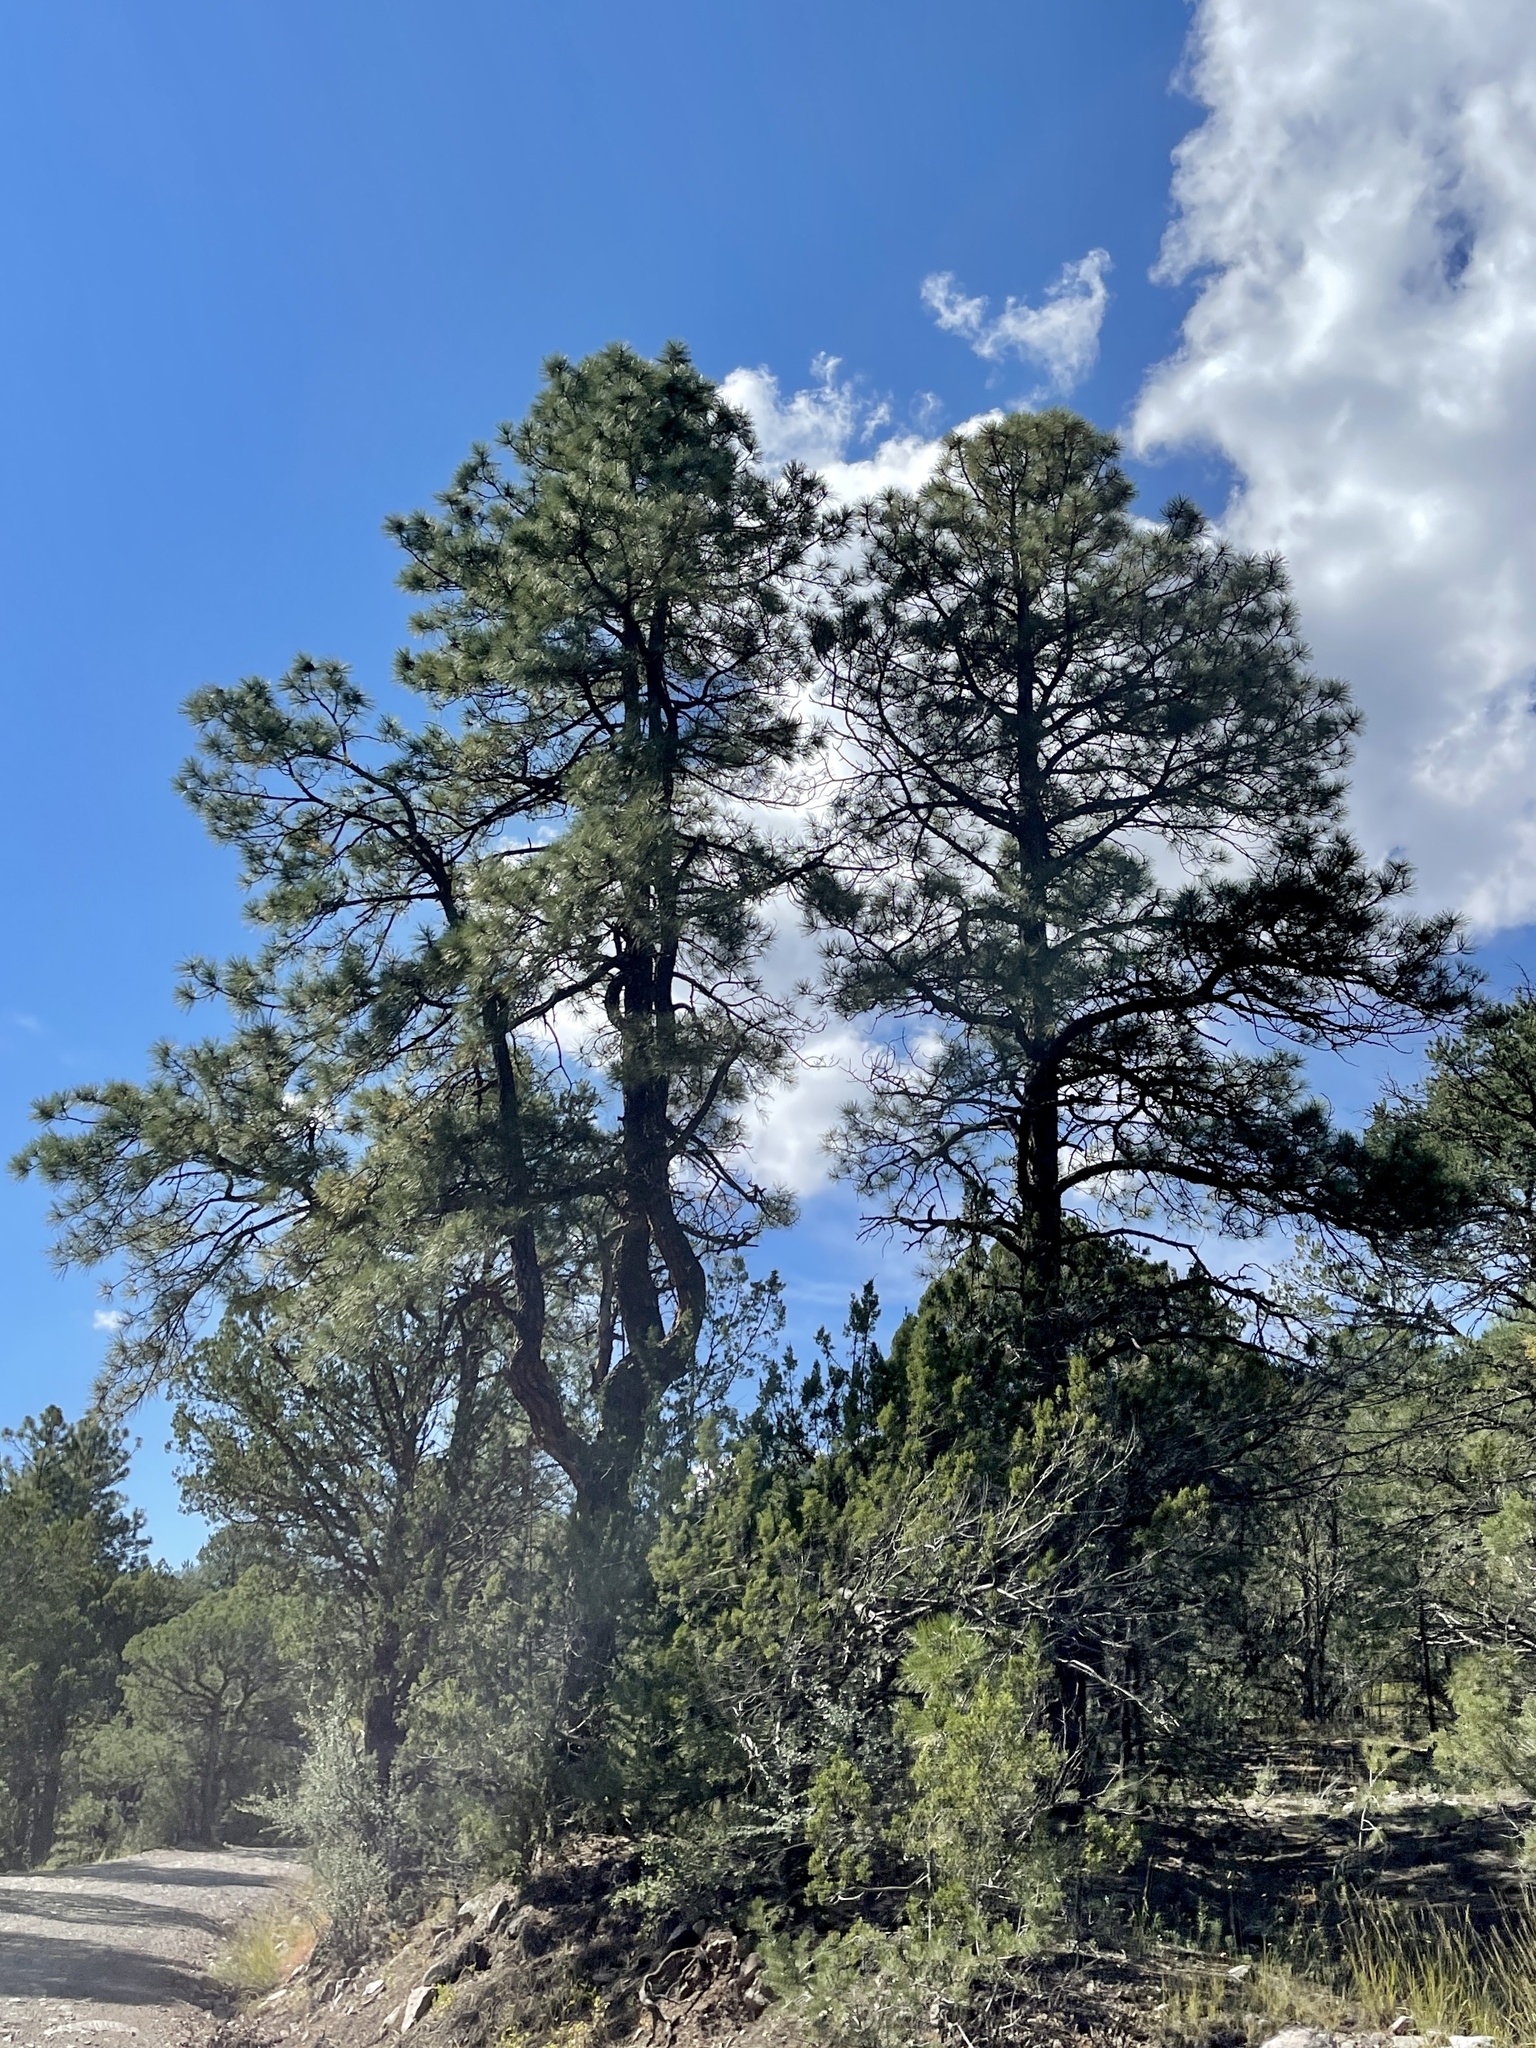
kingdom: Plantae
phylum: Tracheophyta
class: Pinopsida
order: Pinales
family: Pinaceae
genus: Pinus
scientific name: Pinus ponderosa
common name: Western yellow-pine
